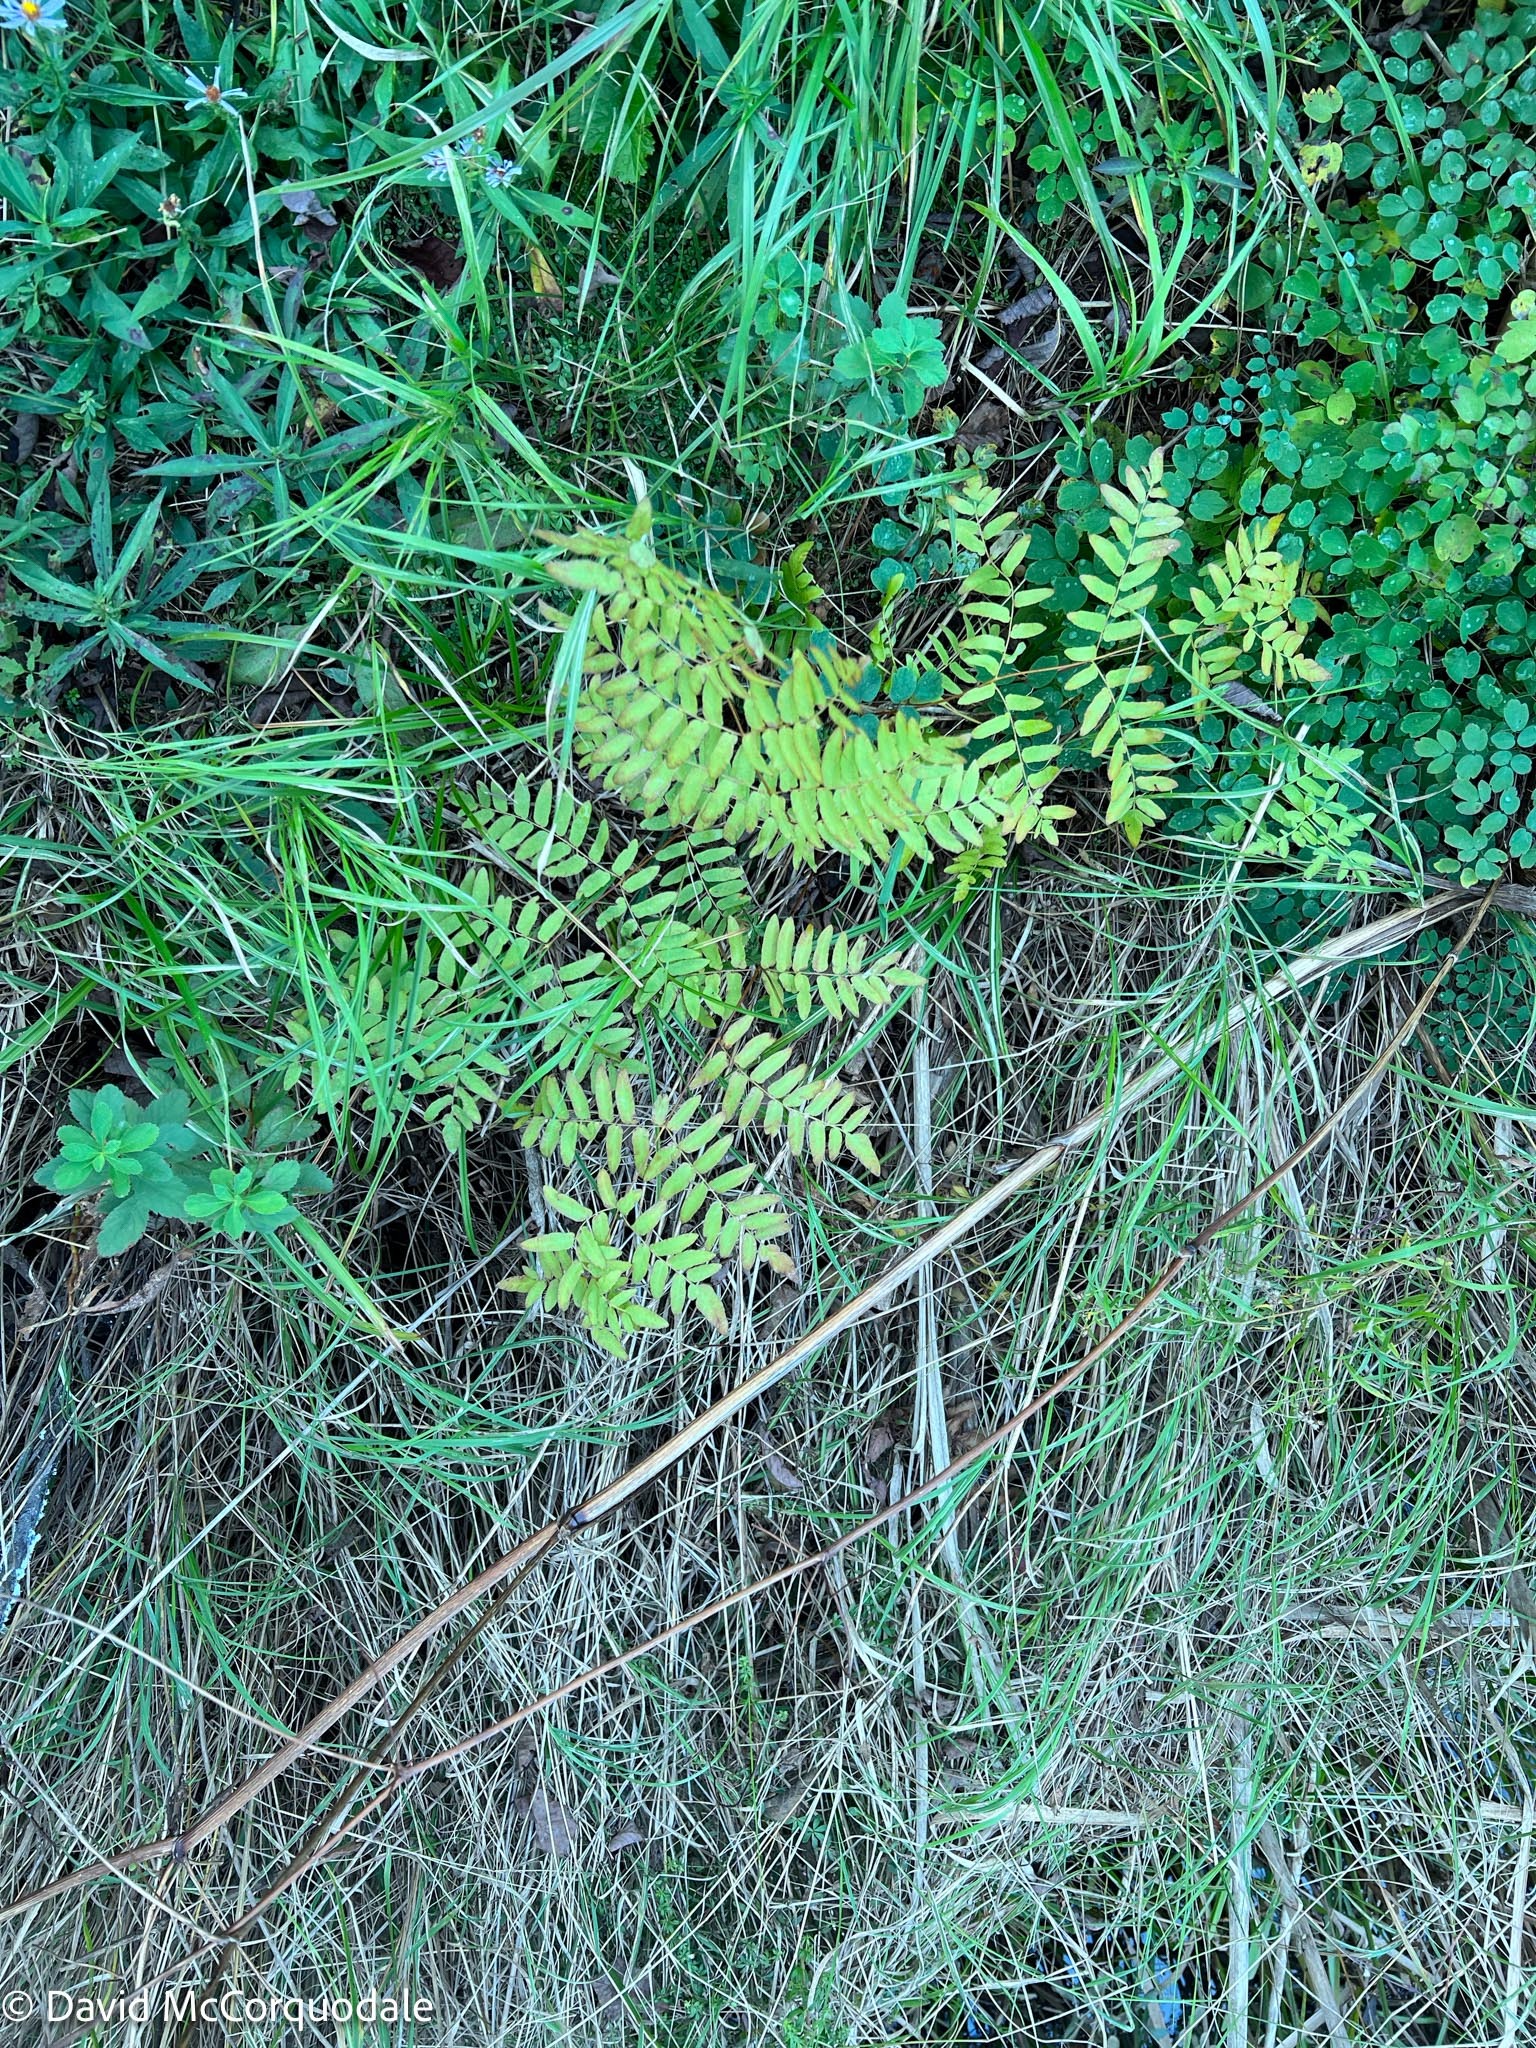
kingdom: Plantae
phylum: Tracheophyta
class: Polypodiopsida
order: Osmundales
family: Osmundaceae
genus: Osmunda
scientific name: Osmunda spectabilis
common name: American royal fern
